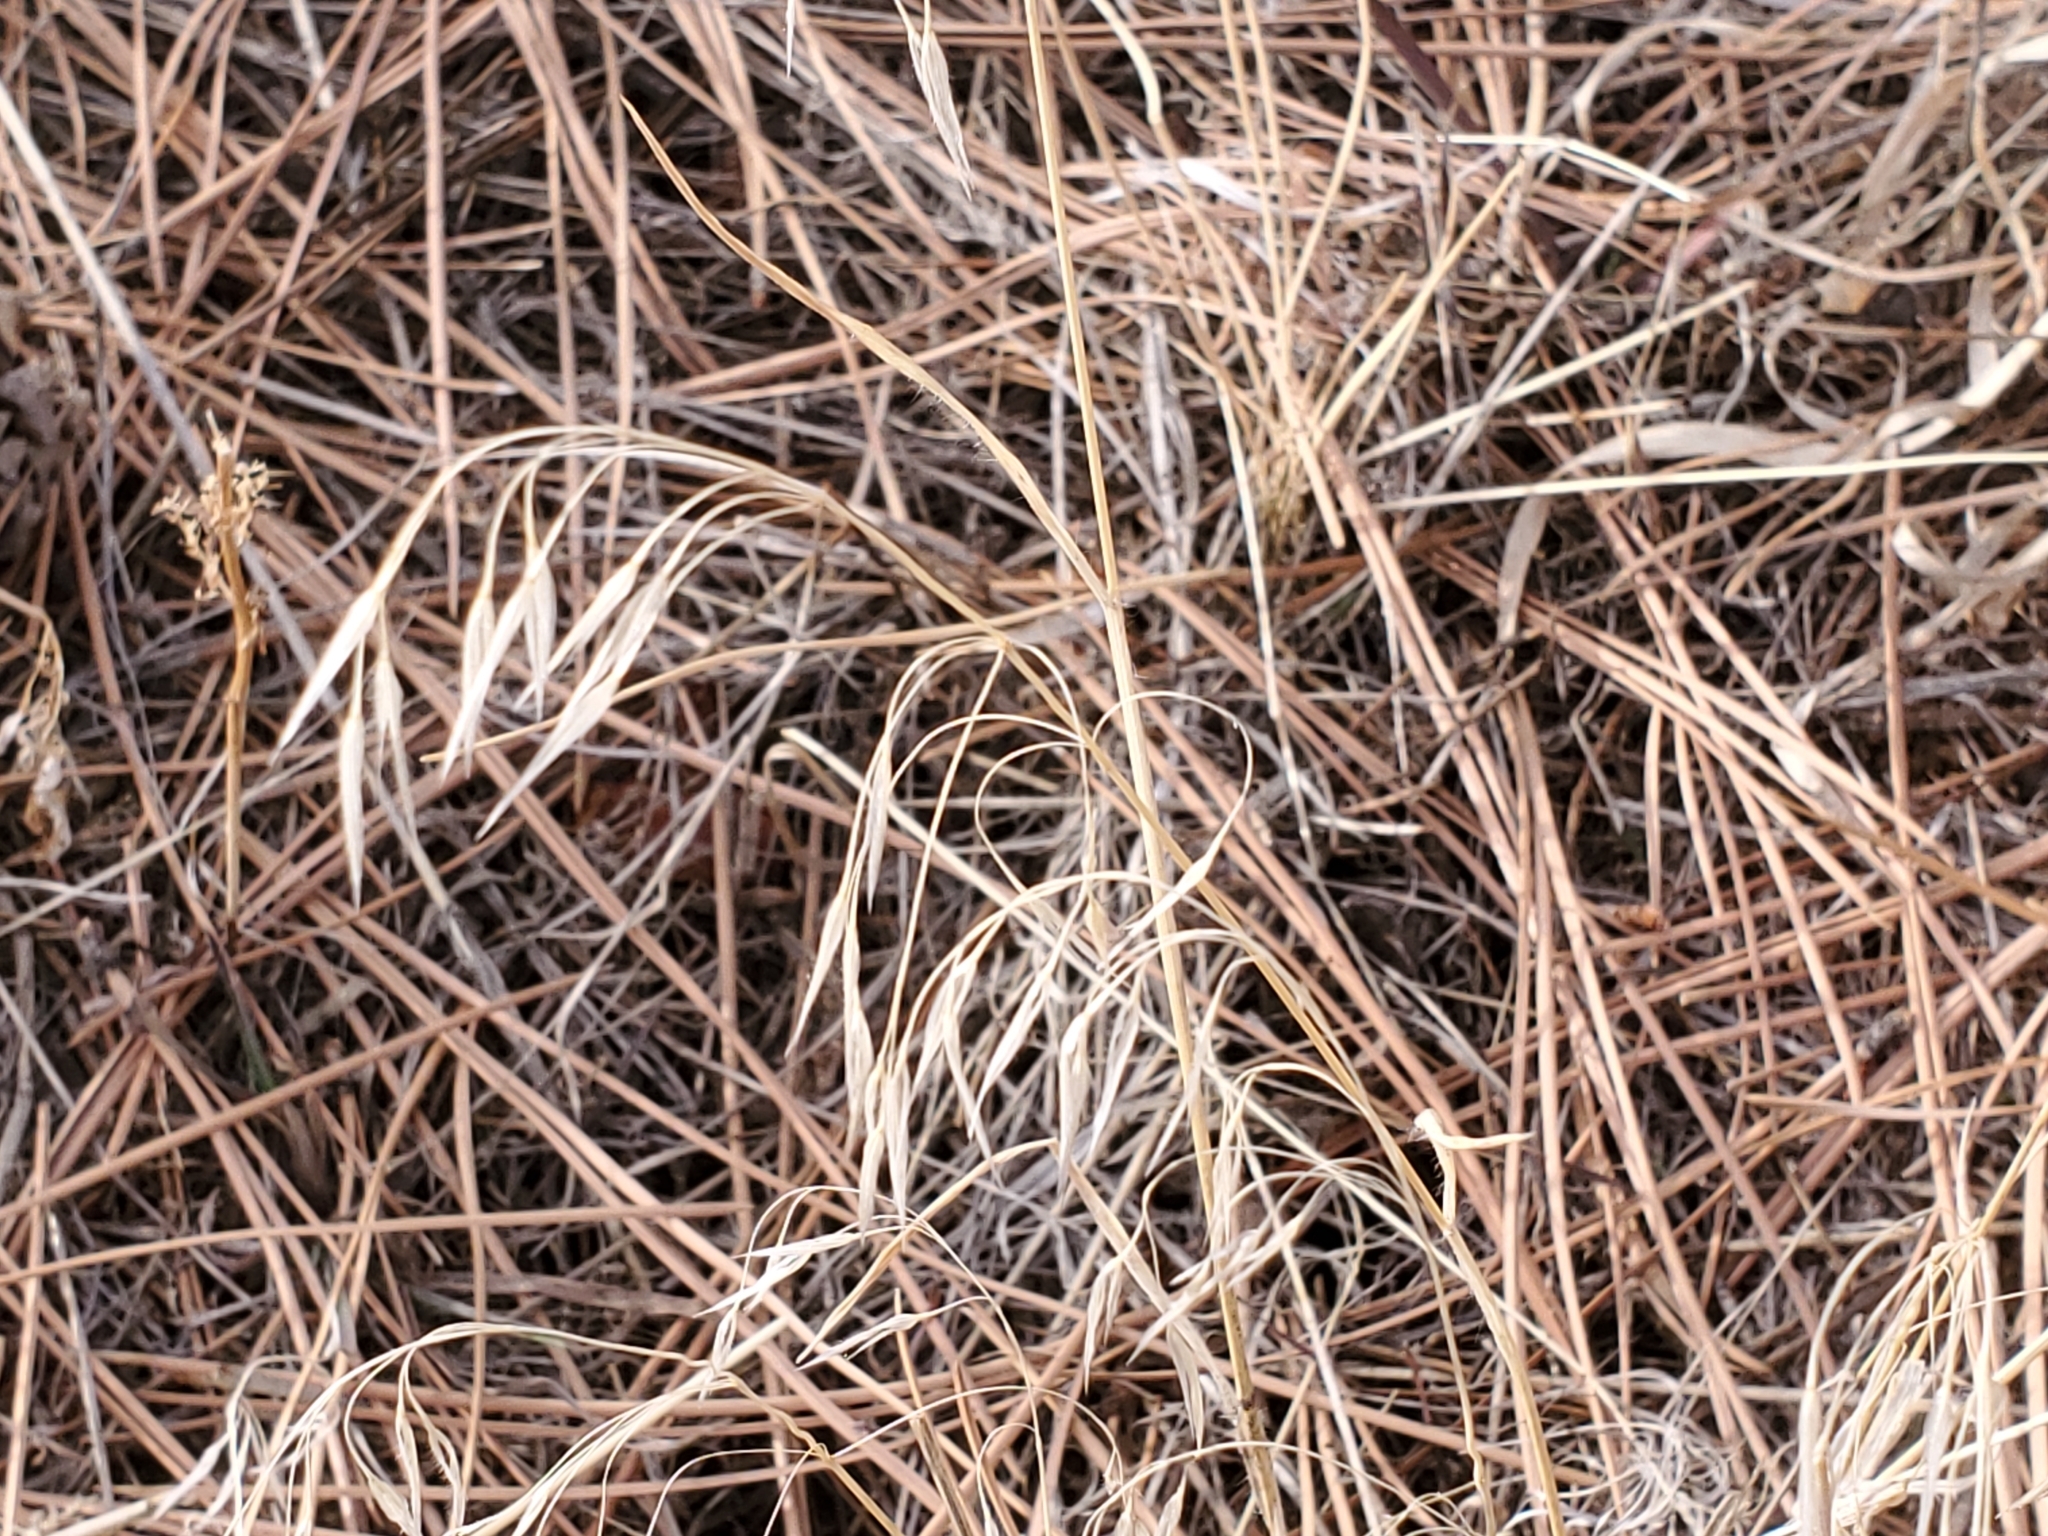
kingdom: Plantae
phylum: Tracheophyta
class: Liliopsida
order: Poales
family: Poaceae
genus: Bromus
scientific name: Bromus tectorum
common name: Cheatgrass
